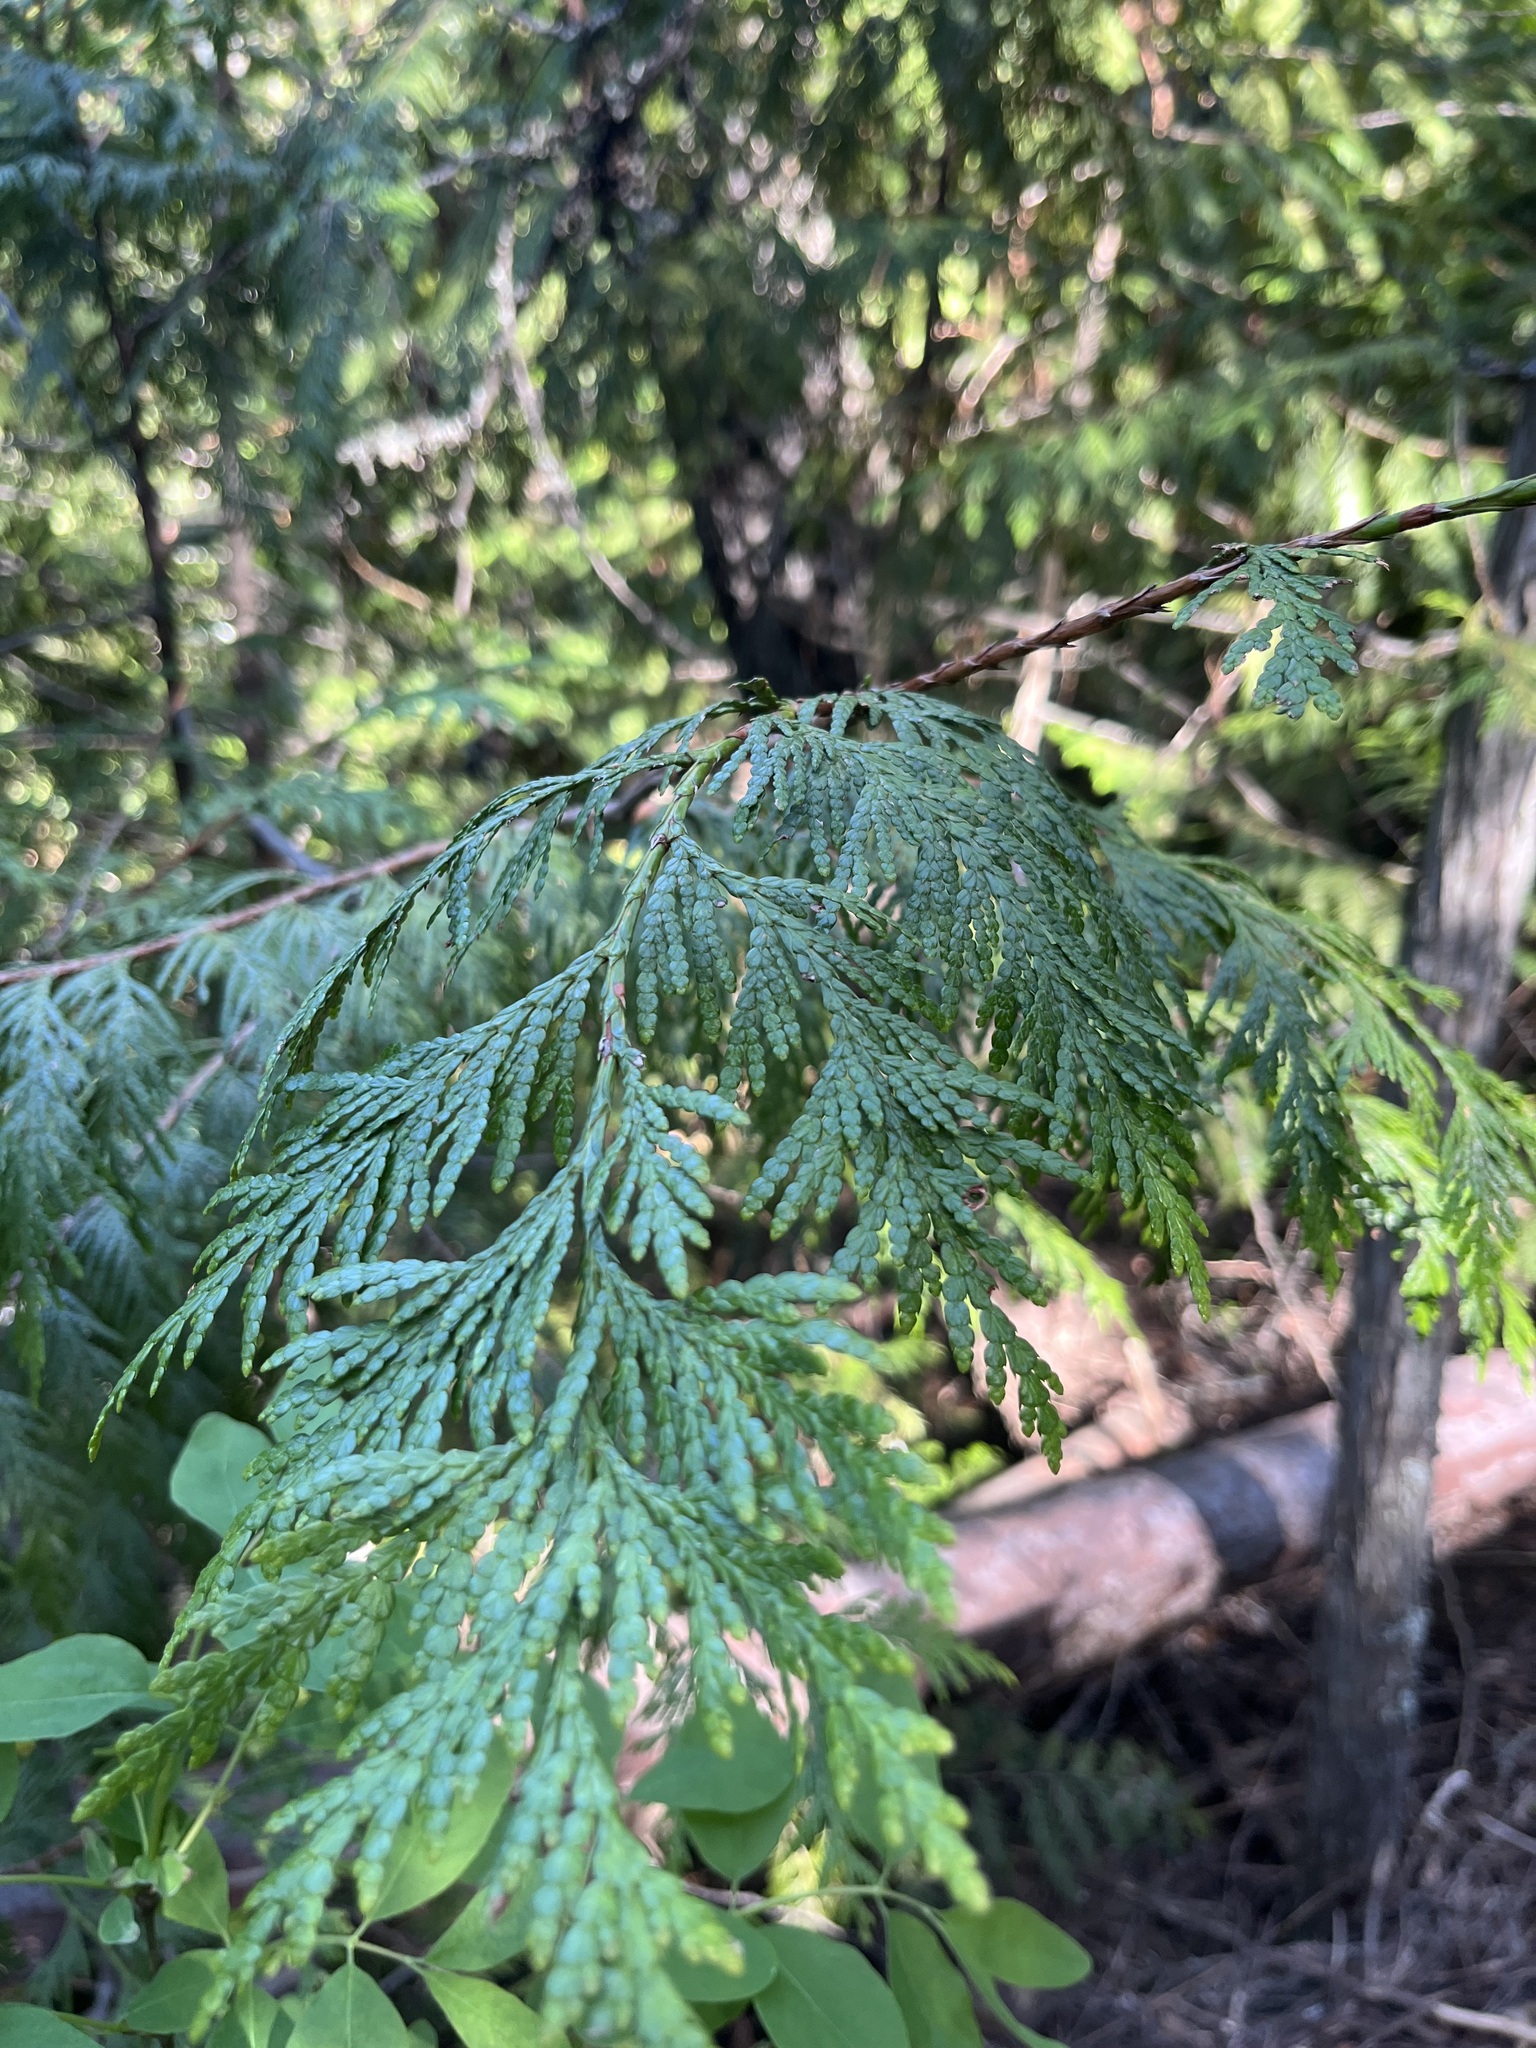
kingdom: Plantae
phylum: Tracheophyta
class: Pinopsida
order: Pinales
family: Cupressaceae
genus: Thuja
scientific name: Thuja plicata
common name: Western red-cedar
